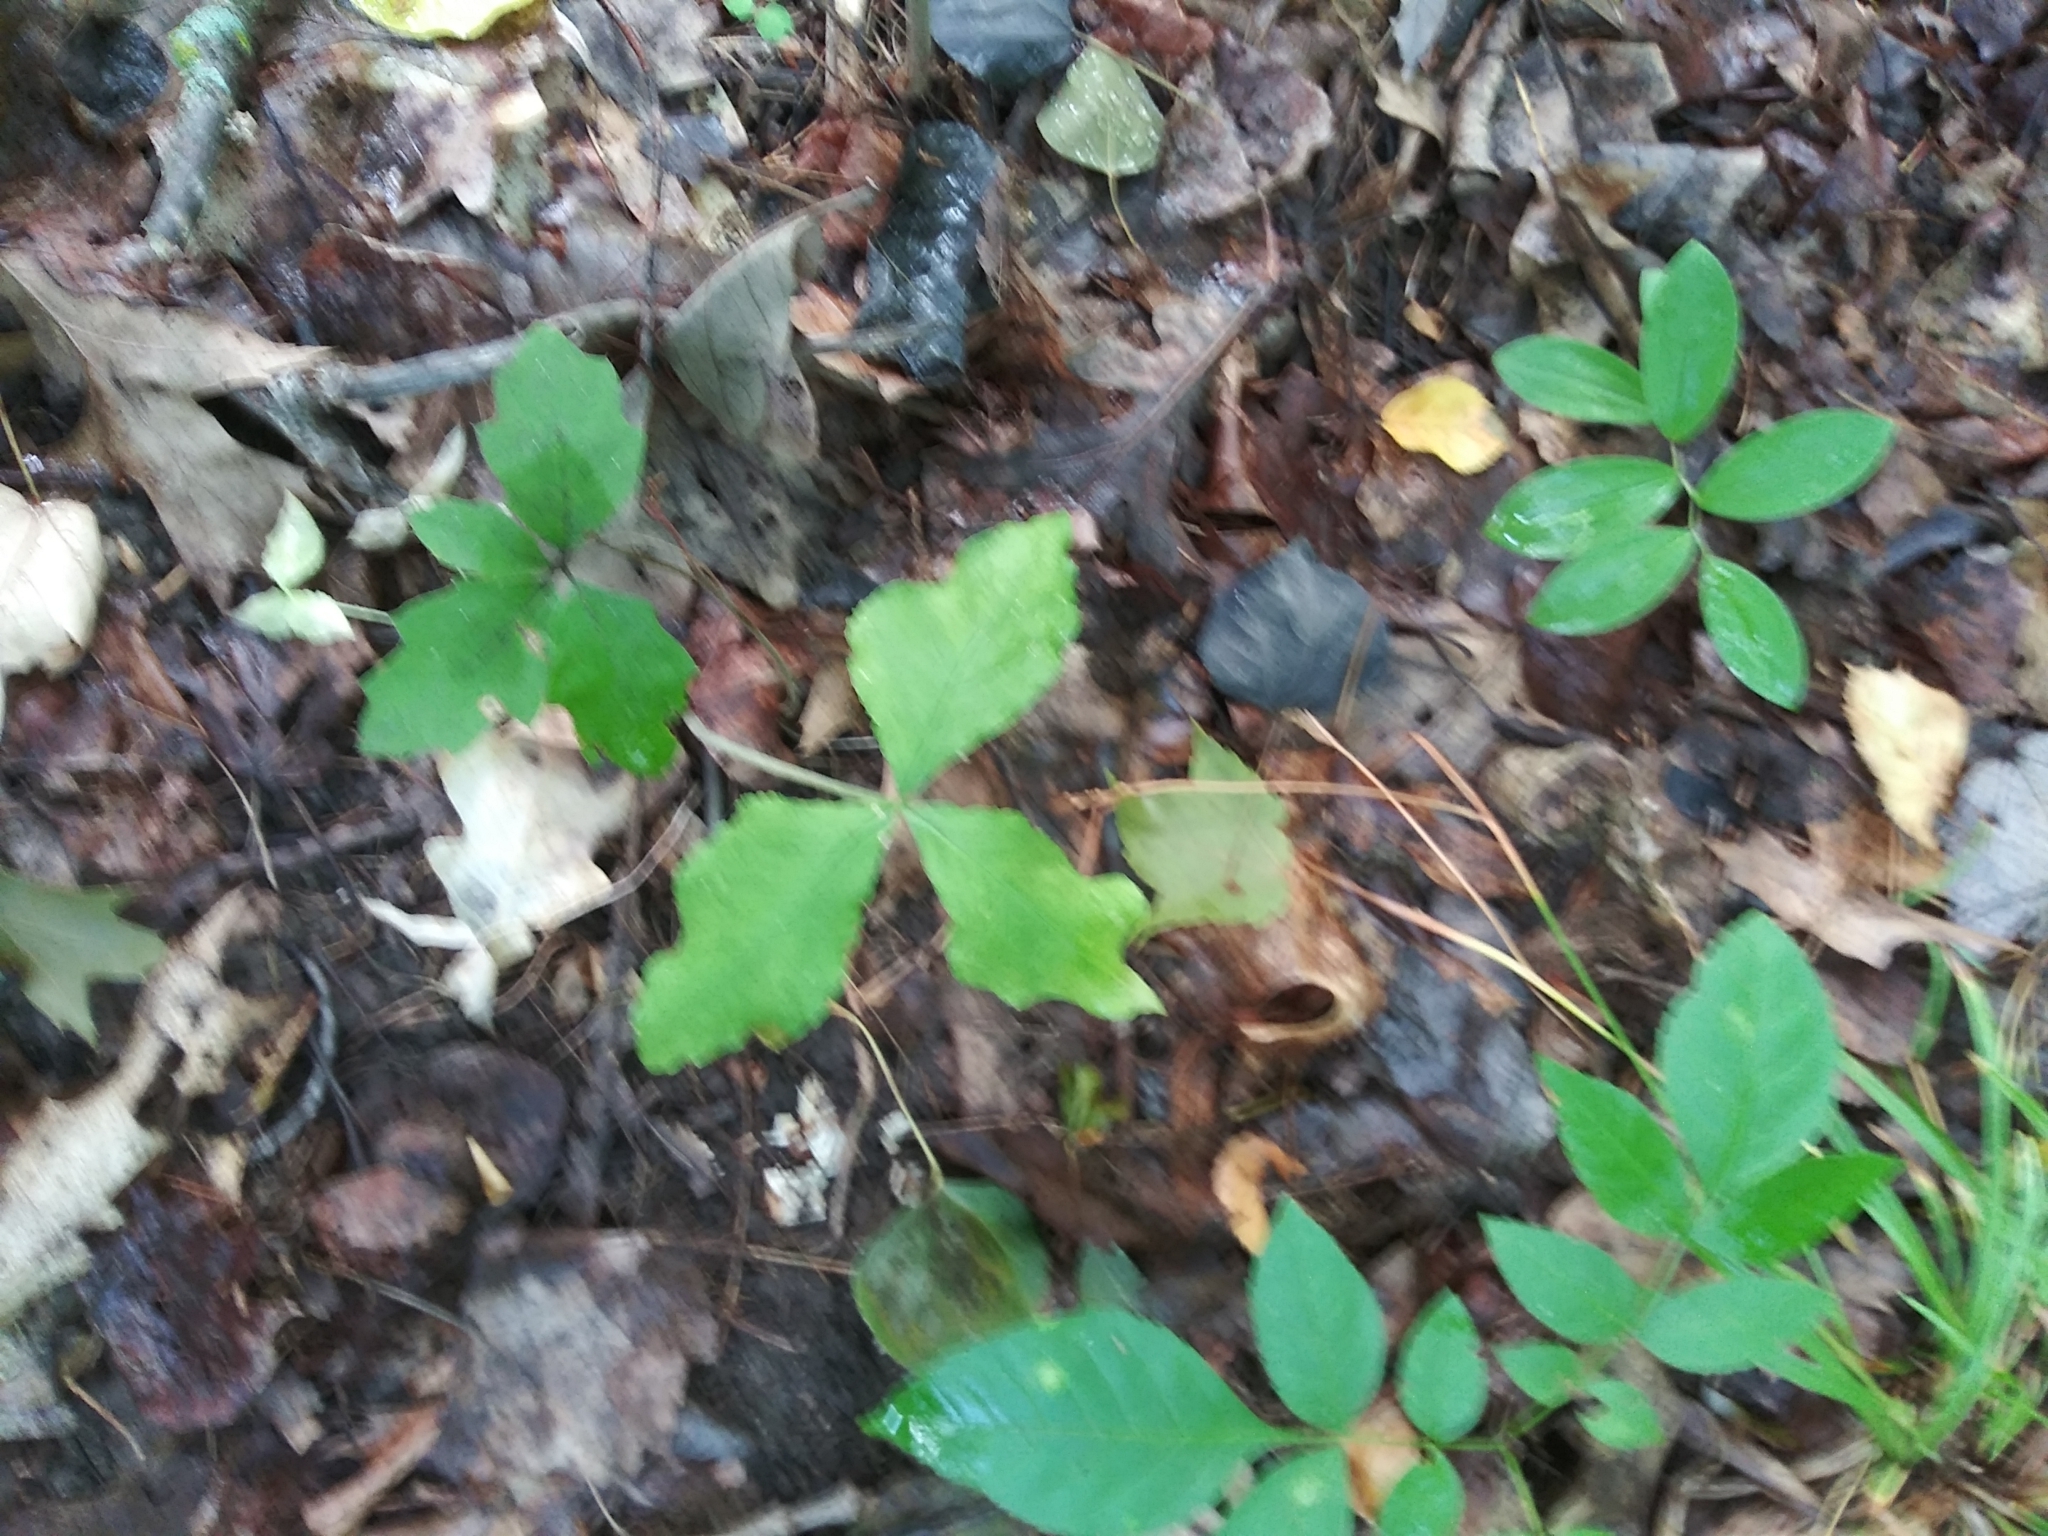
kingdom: Plantae
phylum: Tracheophyta
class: Liliopsida
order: Alismatales
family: Araceae
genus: Arisaema
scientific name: Arisaema triphyllum
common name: Jack-in-the-pulpit
